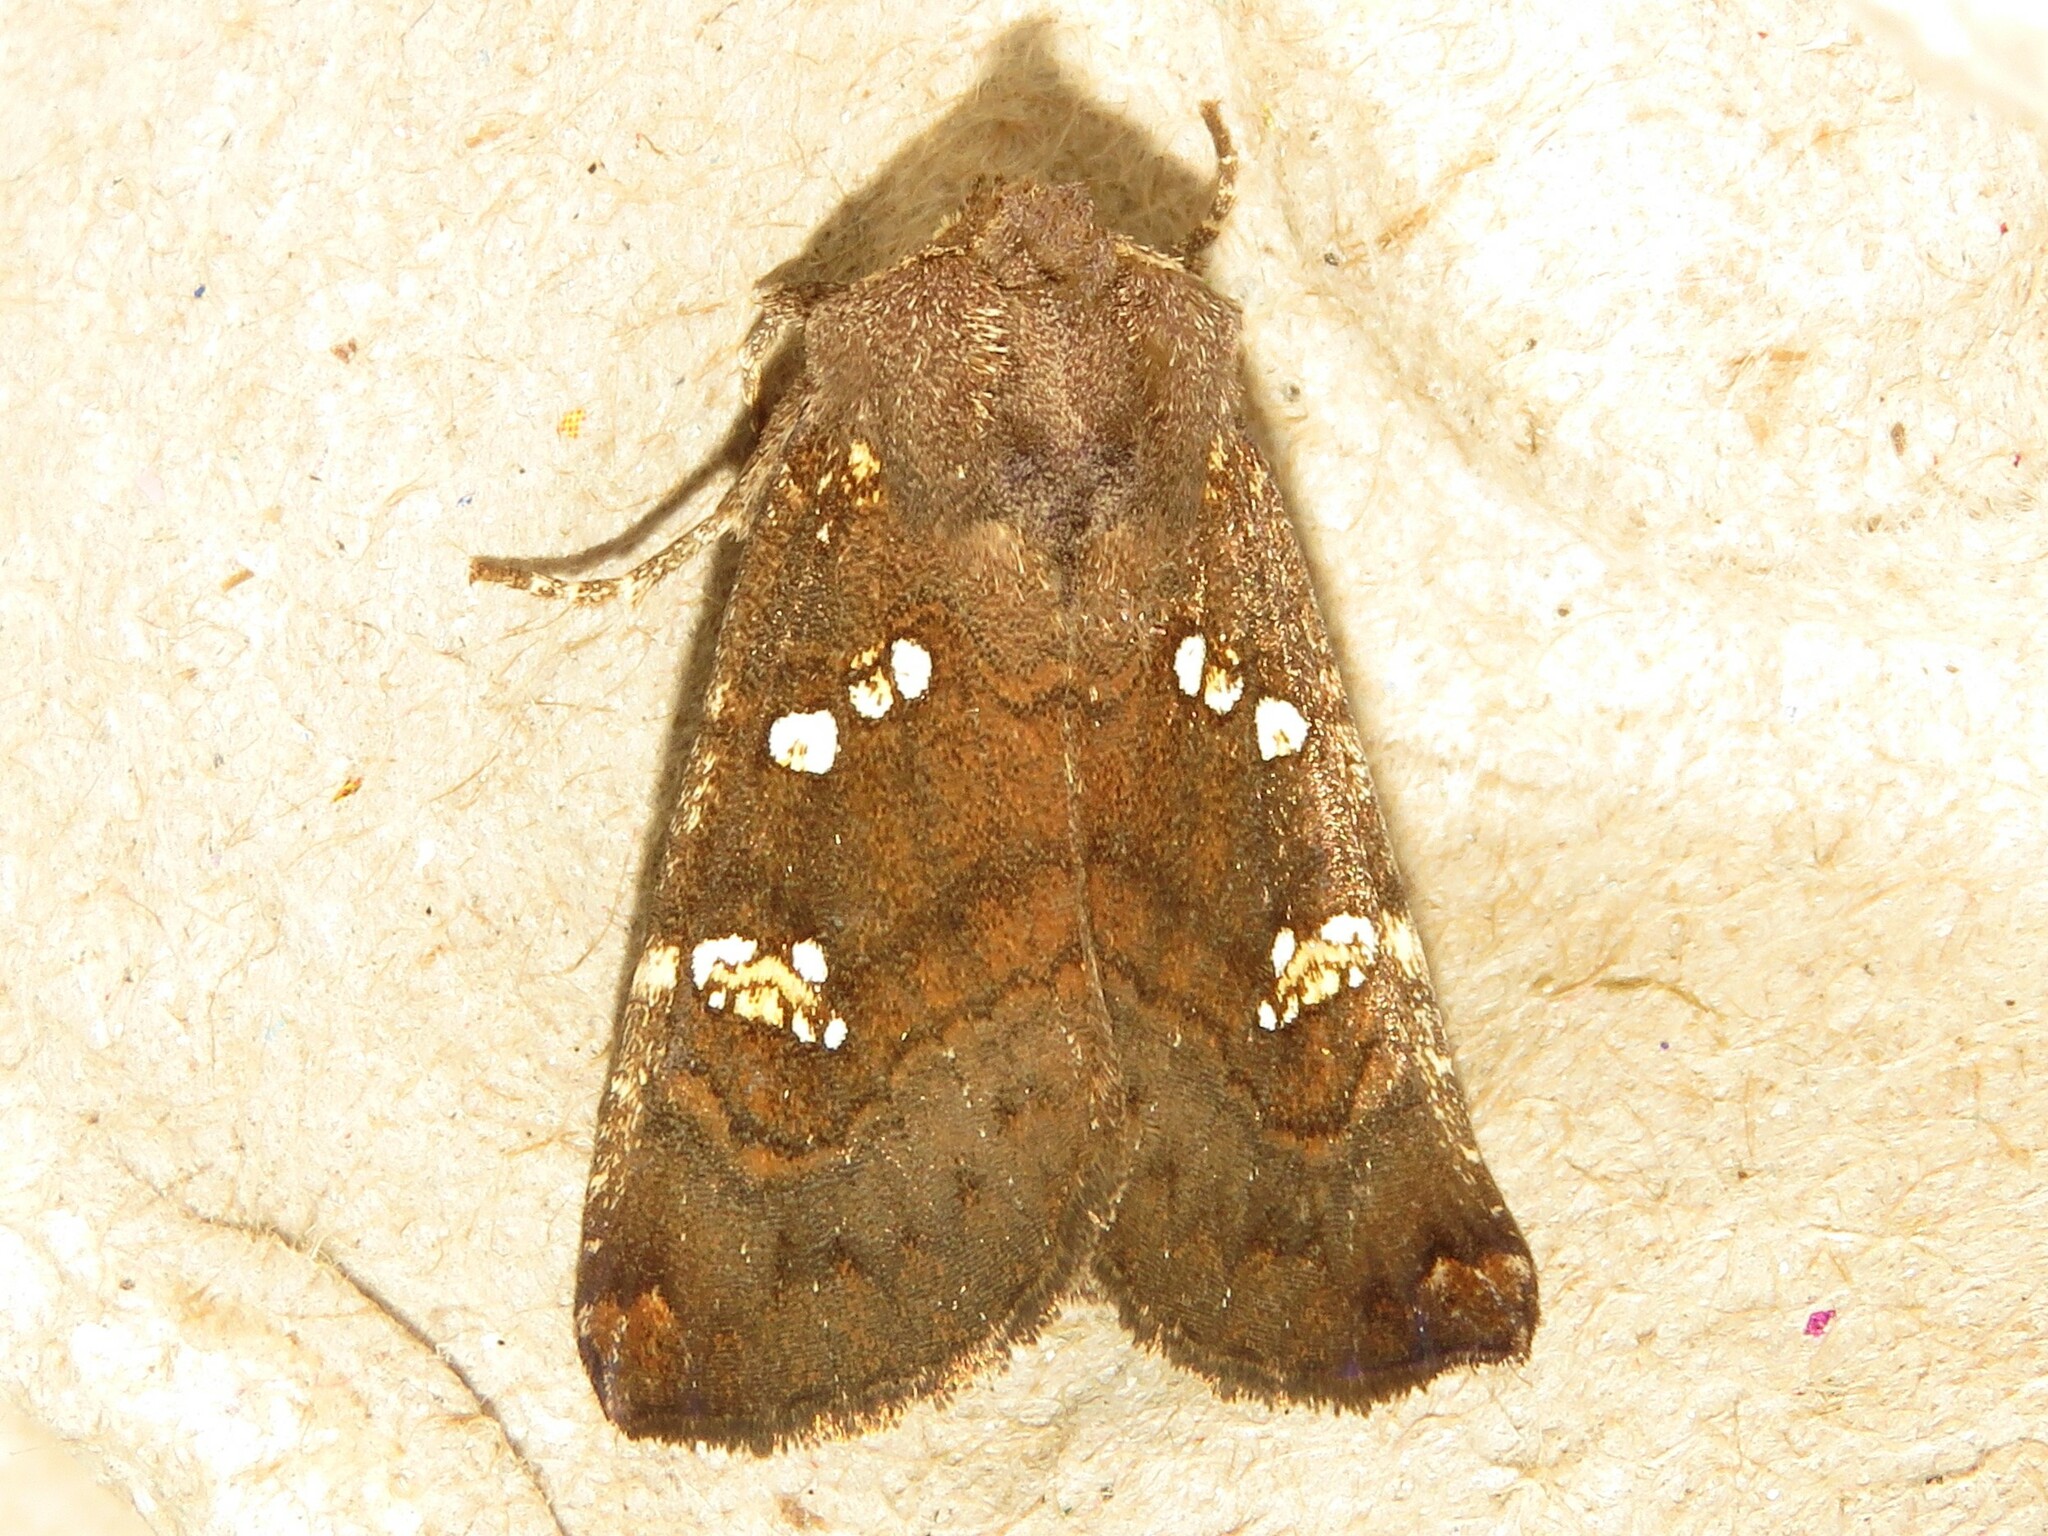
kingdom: Animalia
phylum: Arthropoda
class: Insecta
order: Lepidoptera
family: Noctuidae
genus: Papaipema
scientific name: Papaipema unimoda
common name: Meadow rue borer moth
